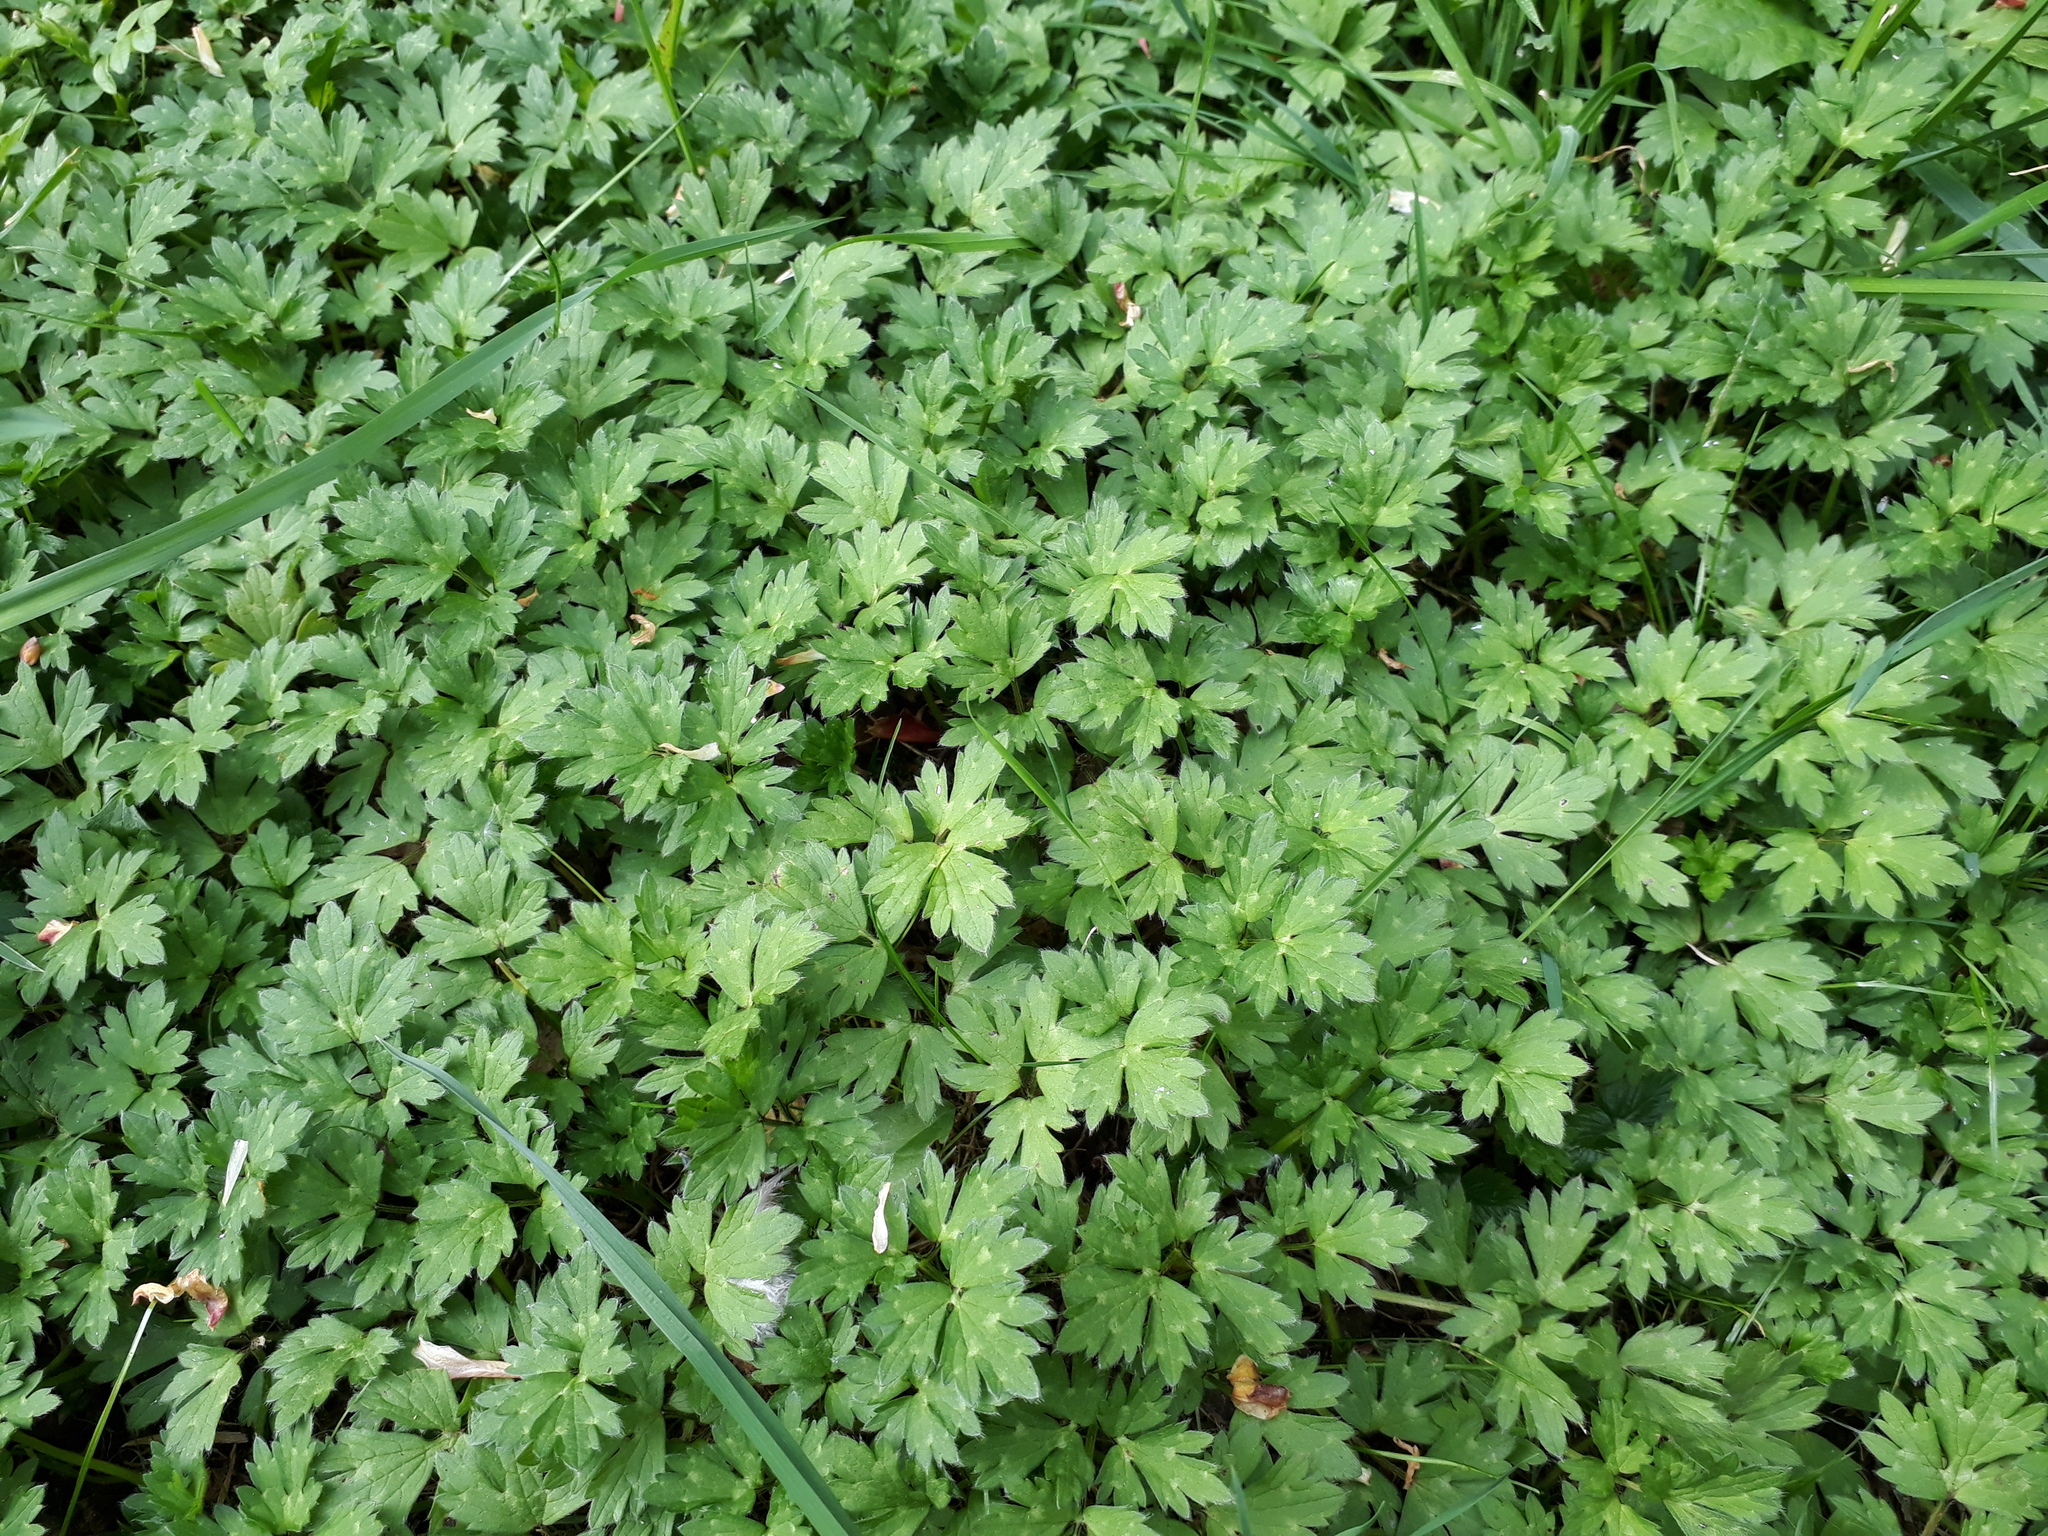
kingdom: Plantae
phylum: Tracheophyta
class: Magnoliopsida
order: Ranunculales
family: Ranunculaceae
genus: Ranunculus
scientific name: Ranunculus repens
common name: Creeping buttercup
